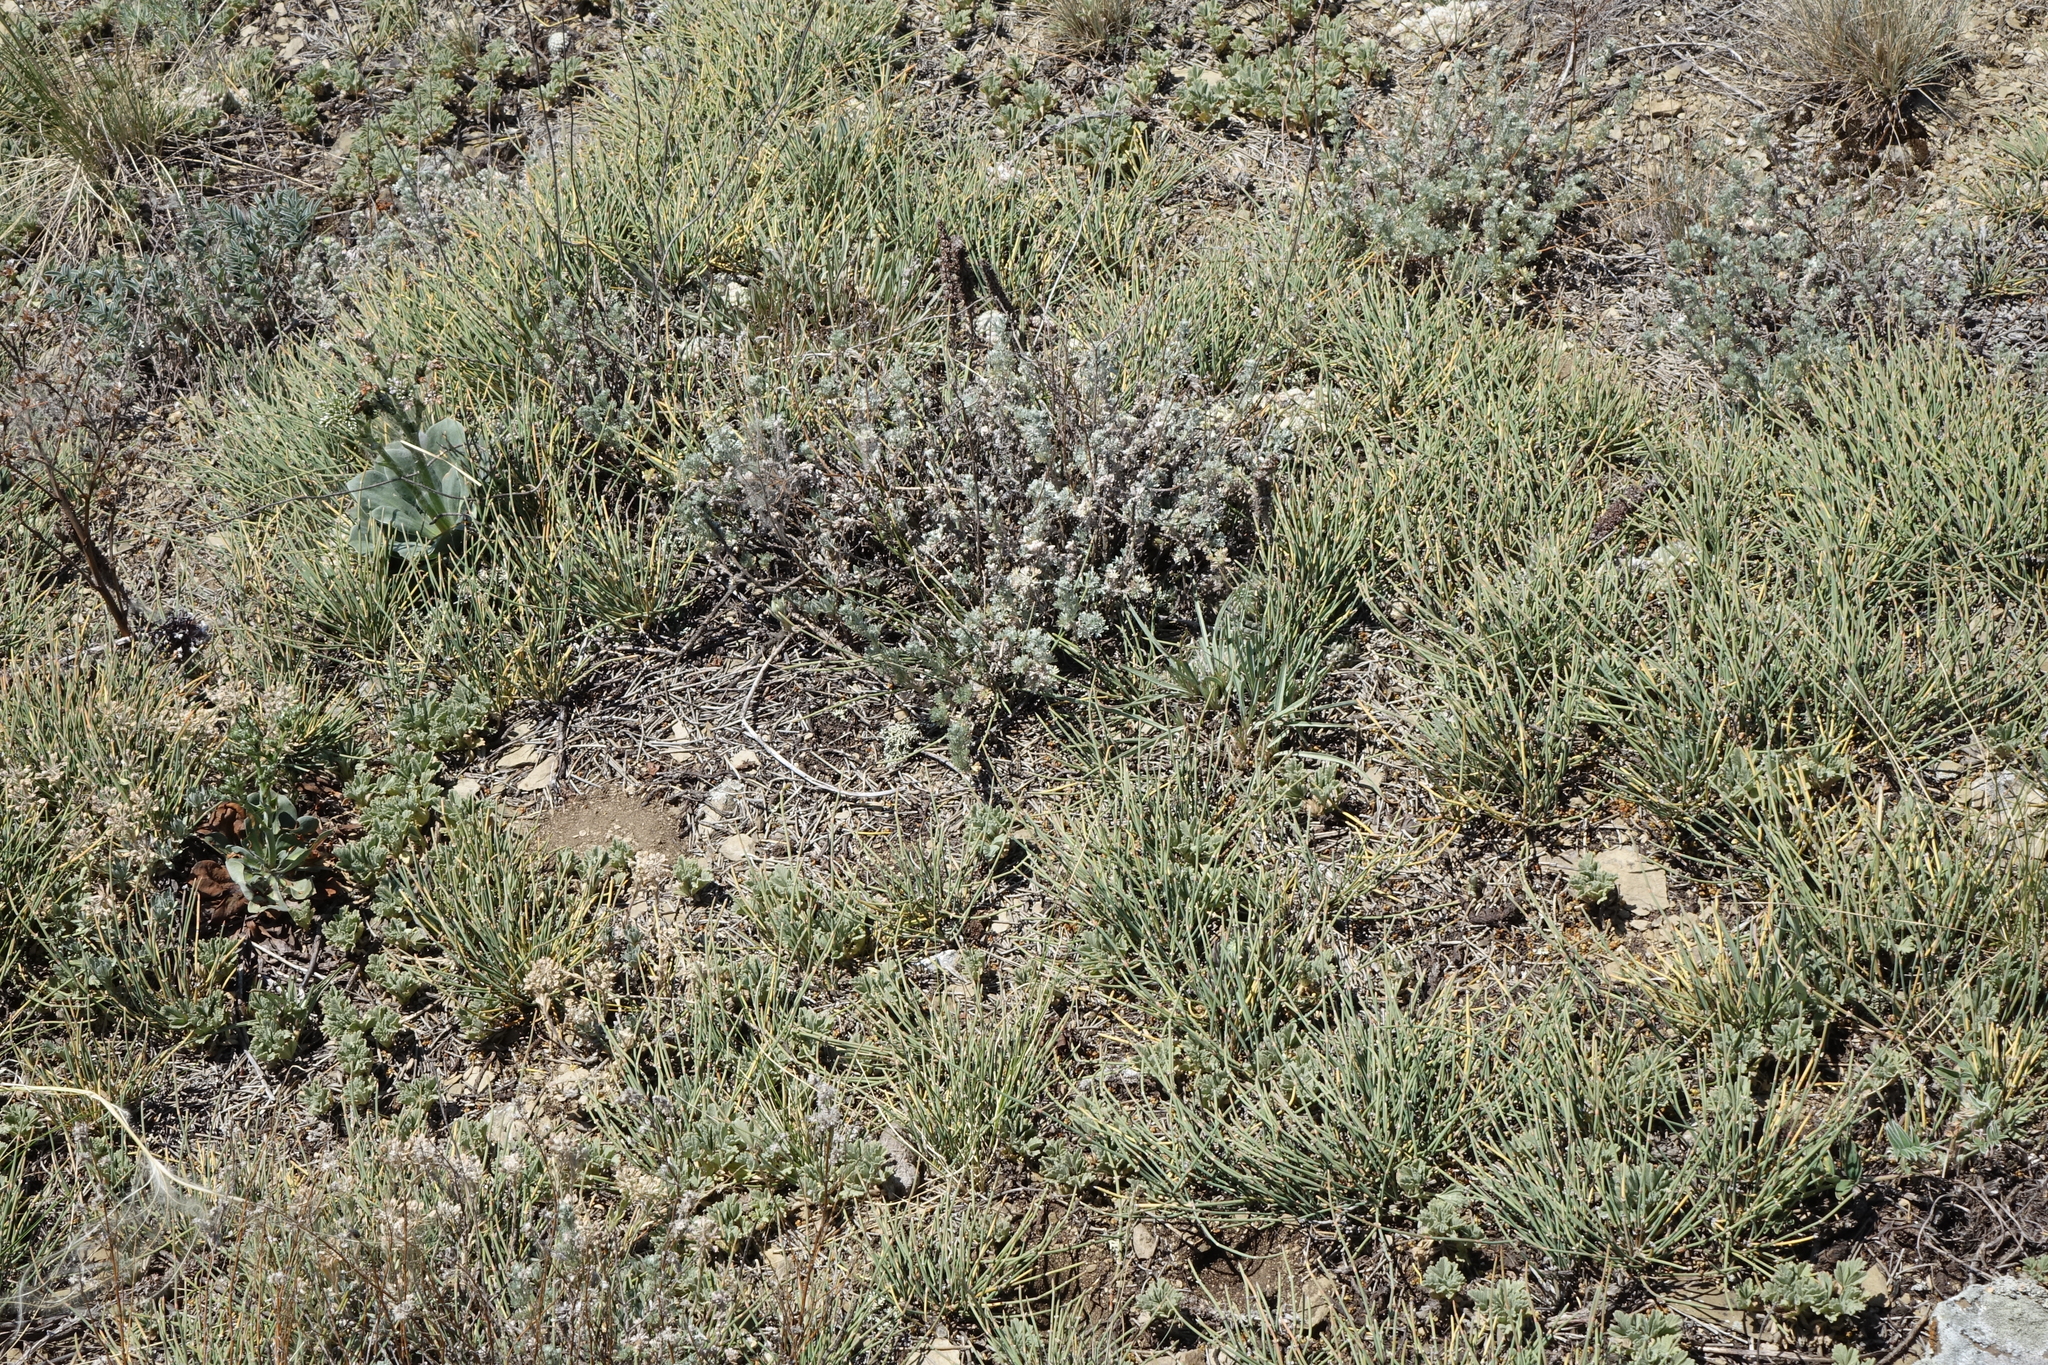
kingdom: Plantae
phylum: Tracheophyta
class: Gnetopsida
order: Ephedrales
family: Ephedraceae
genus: Ephedra
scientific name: Ephedra distachya
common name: Sea grape
